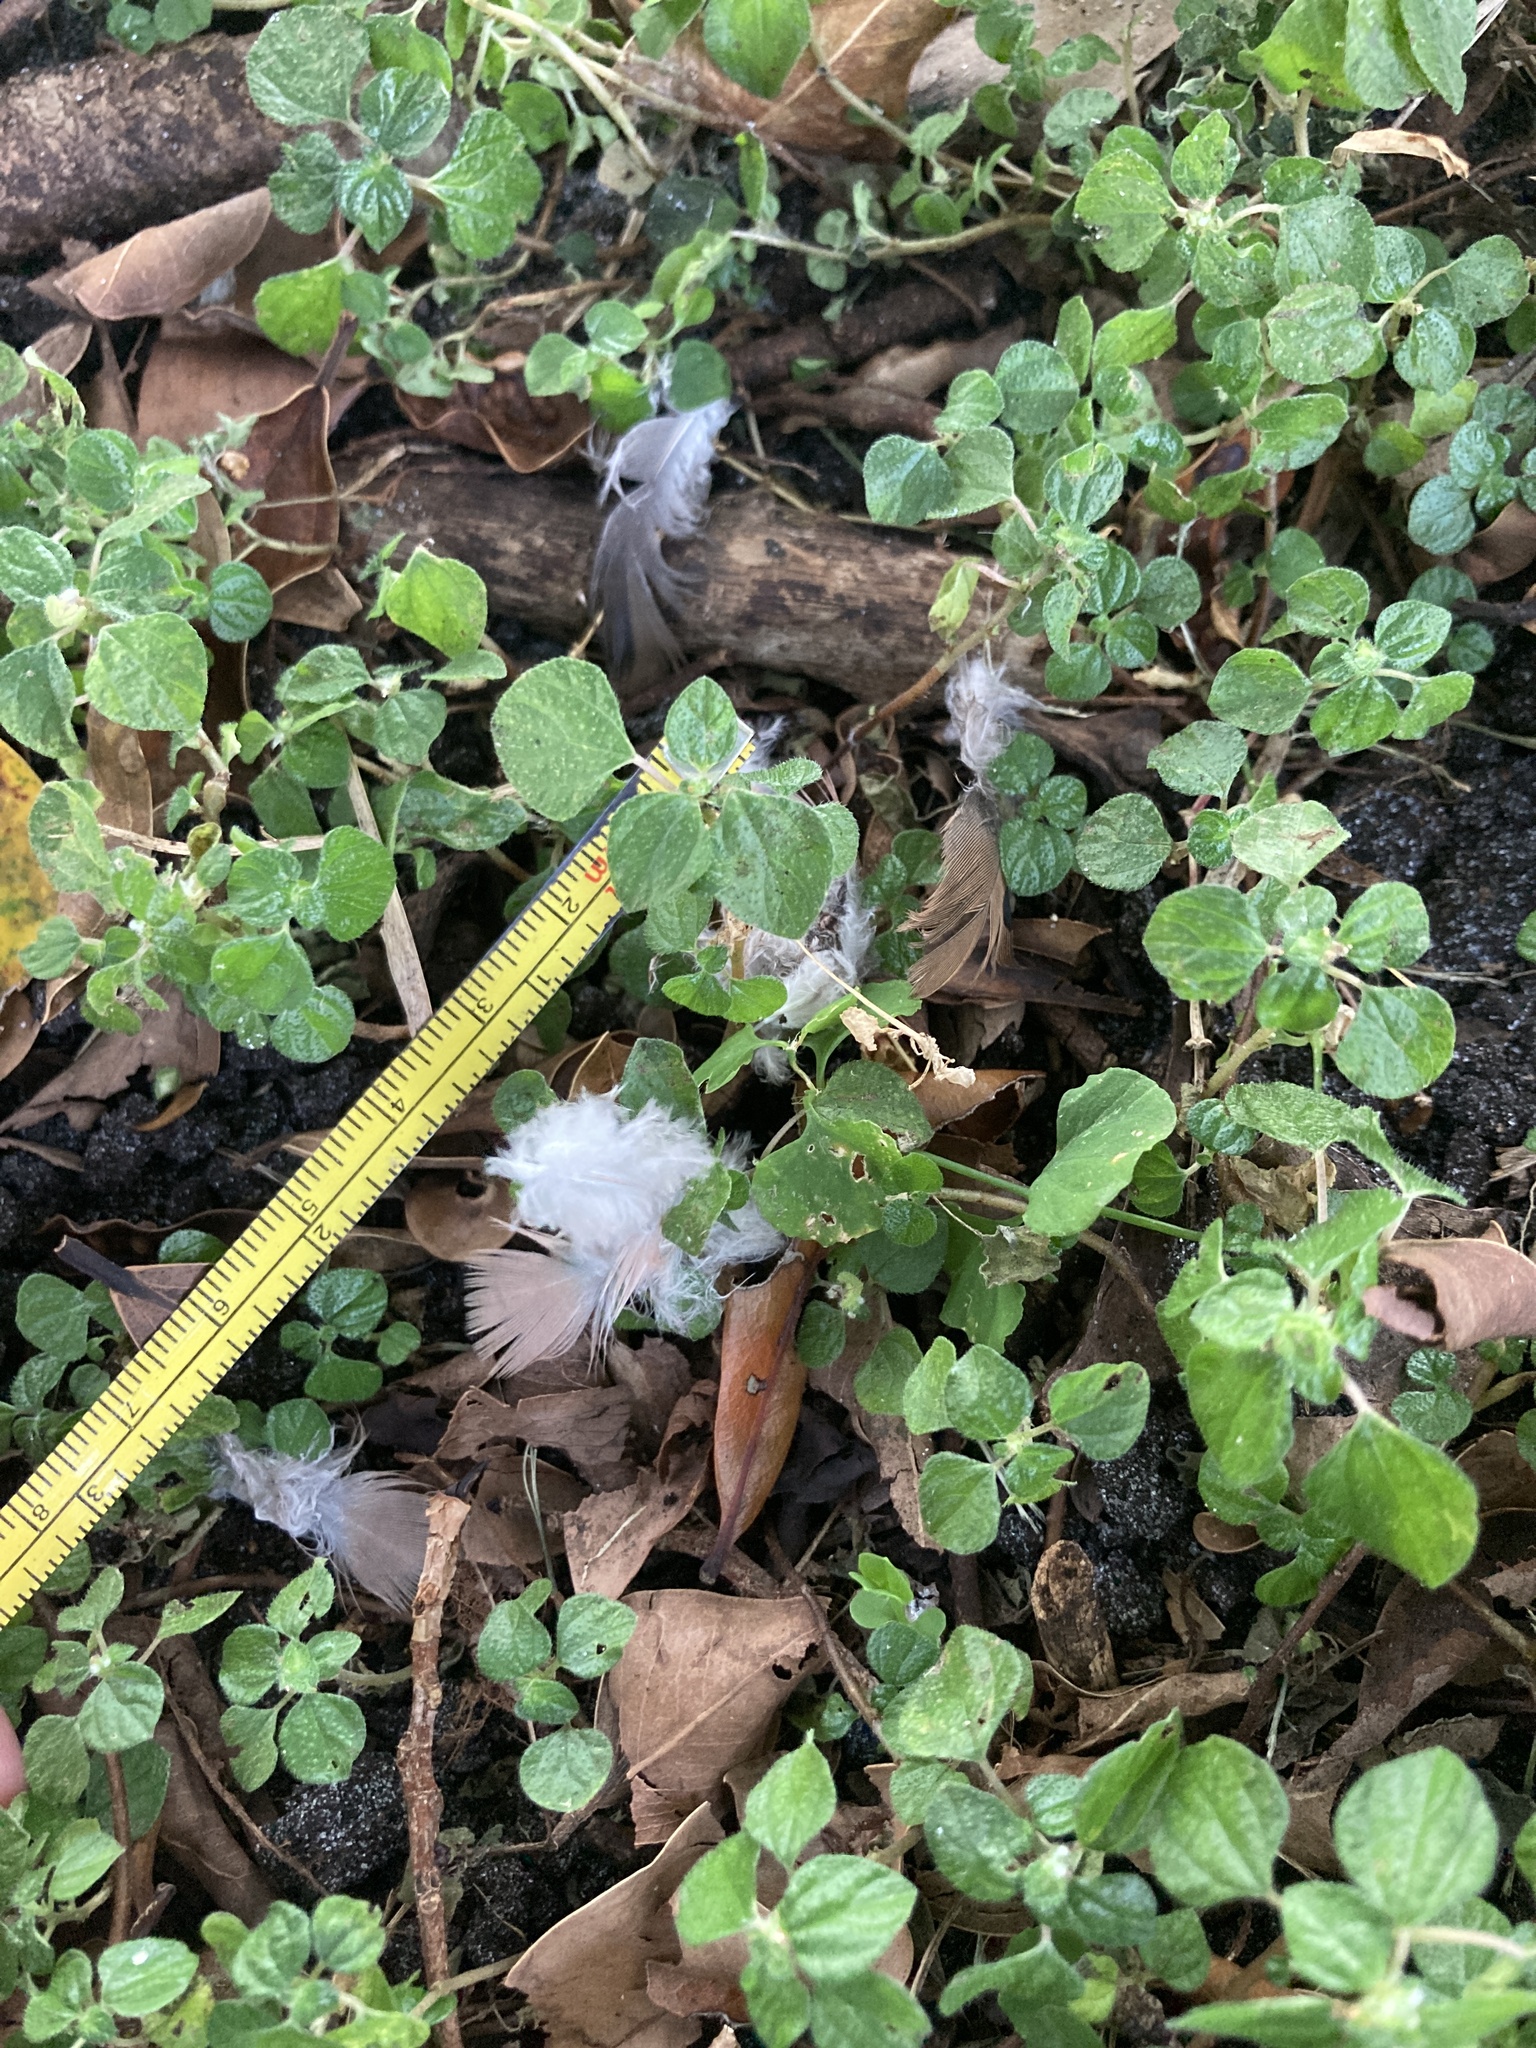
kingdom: Animalia
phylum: Chordata
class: Aves
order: Columbiformes
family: Columbidae
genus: Zenaida
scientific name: Zenaida macroura
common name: Mourning dove
